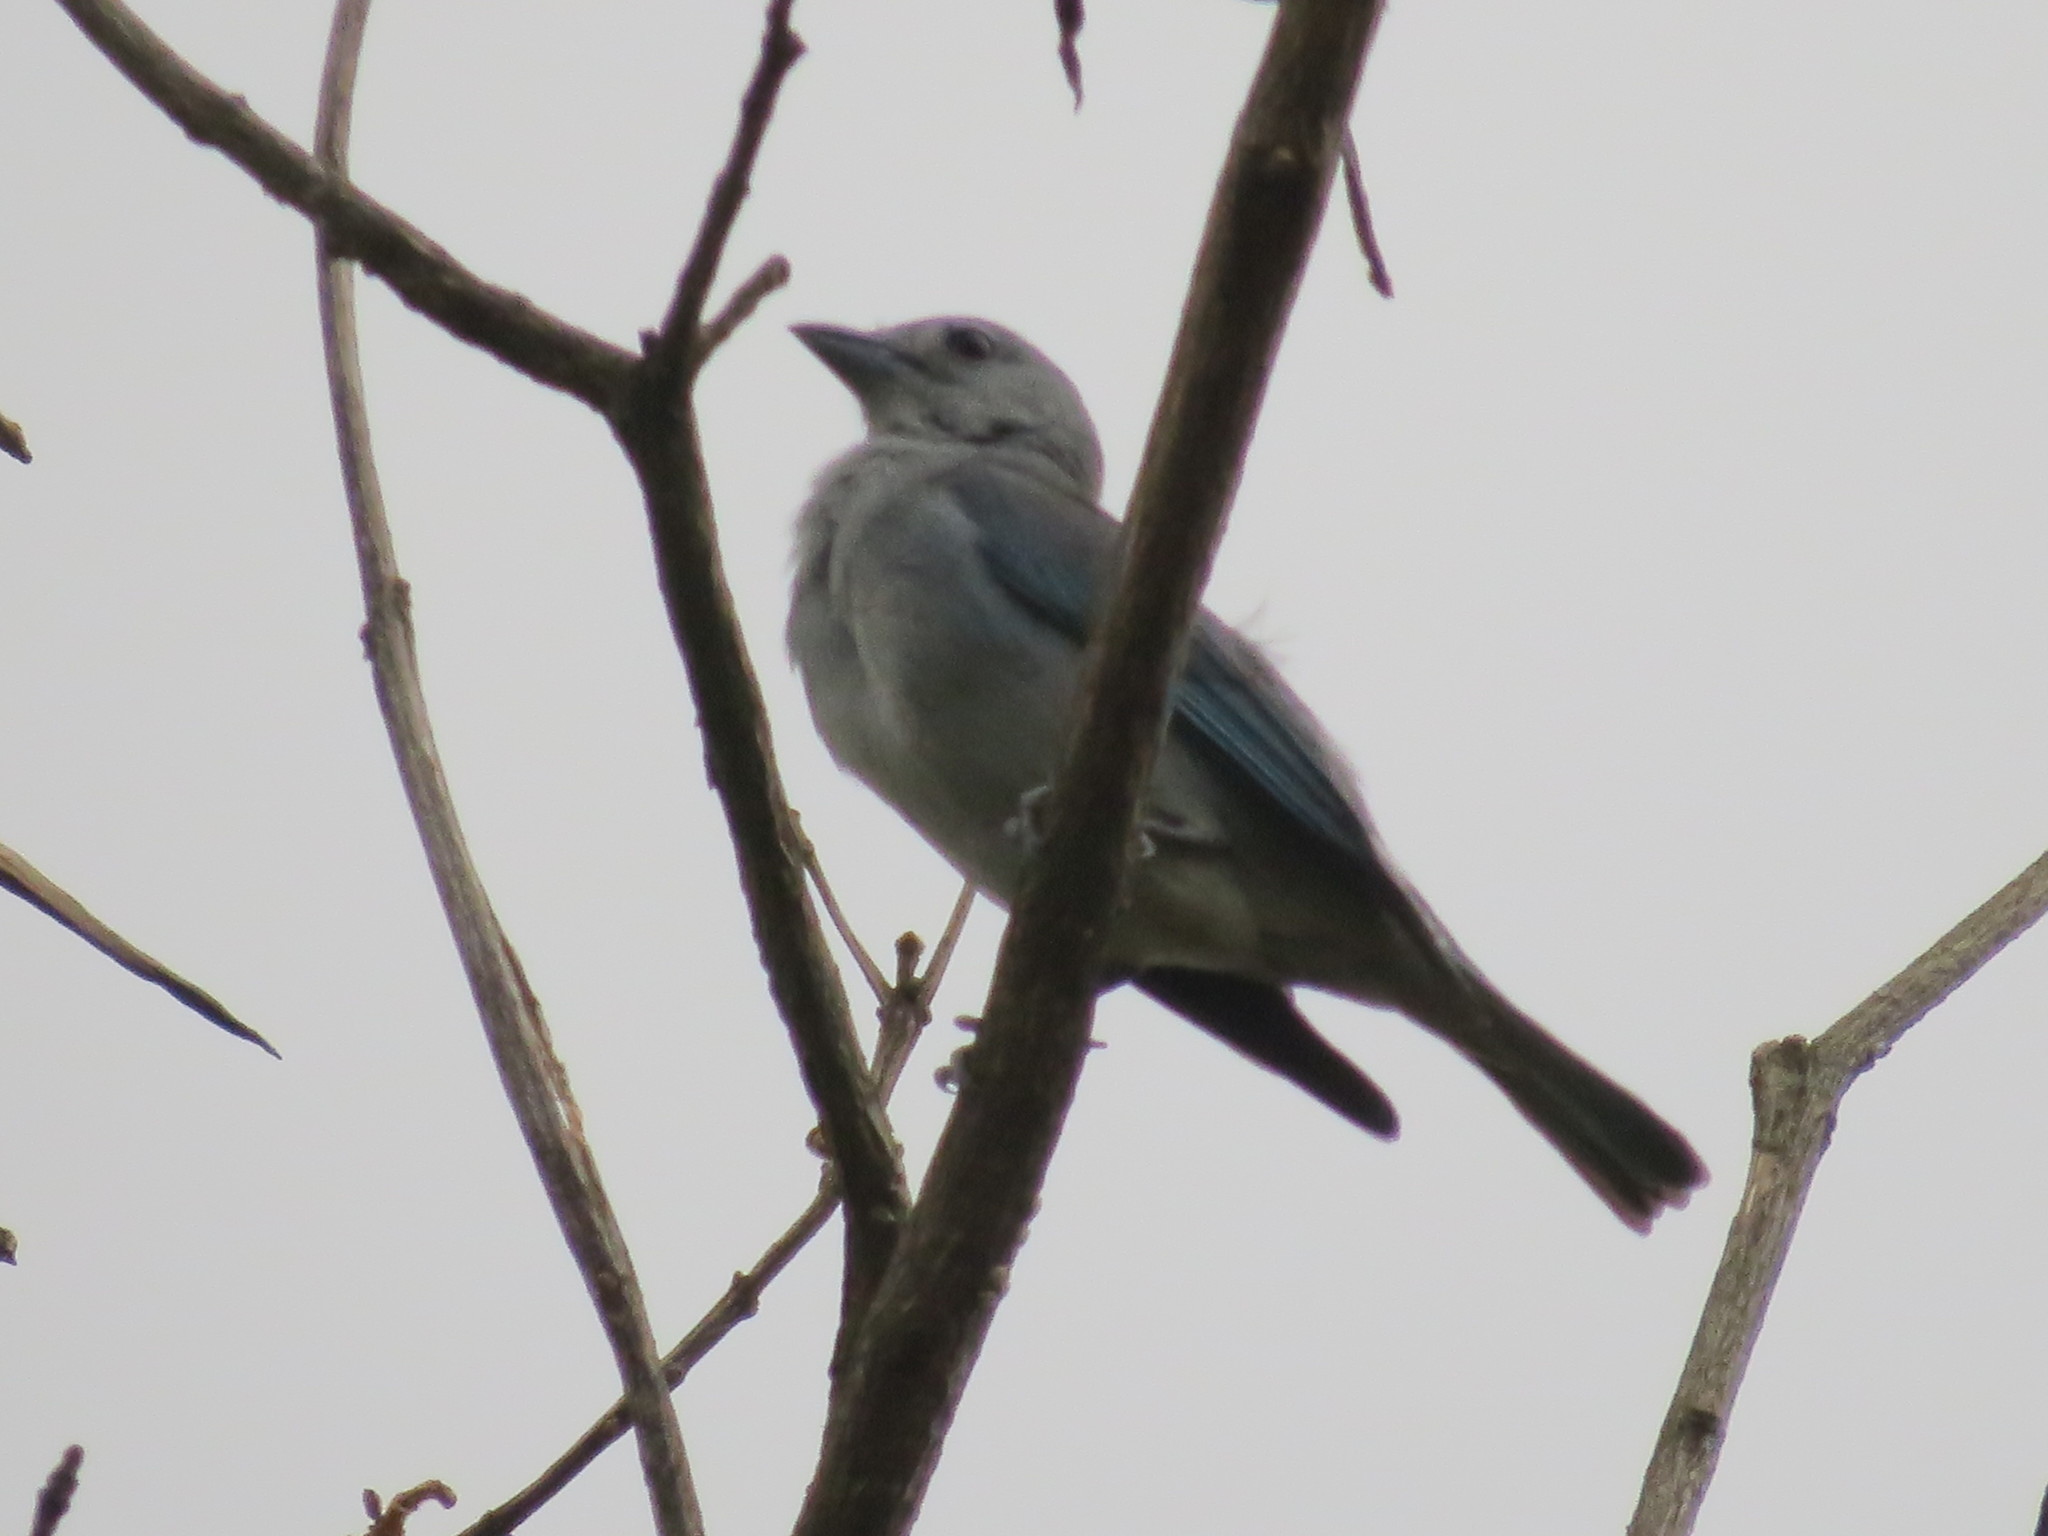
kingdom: Animalia
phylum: Chordata
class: Aves
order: Passeriformes
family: Thraupidae
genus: Thraupis
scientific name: Thraupis sayaca
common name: Sayaca tanager
